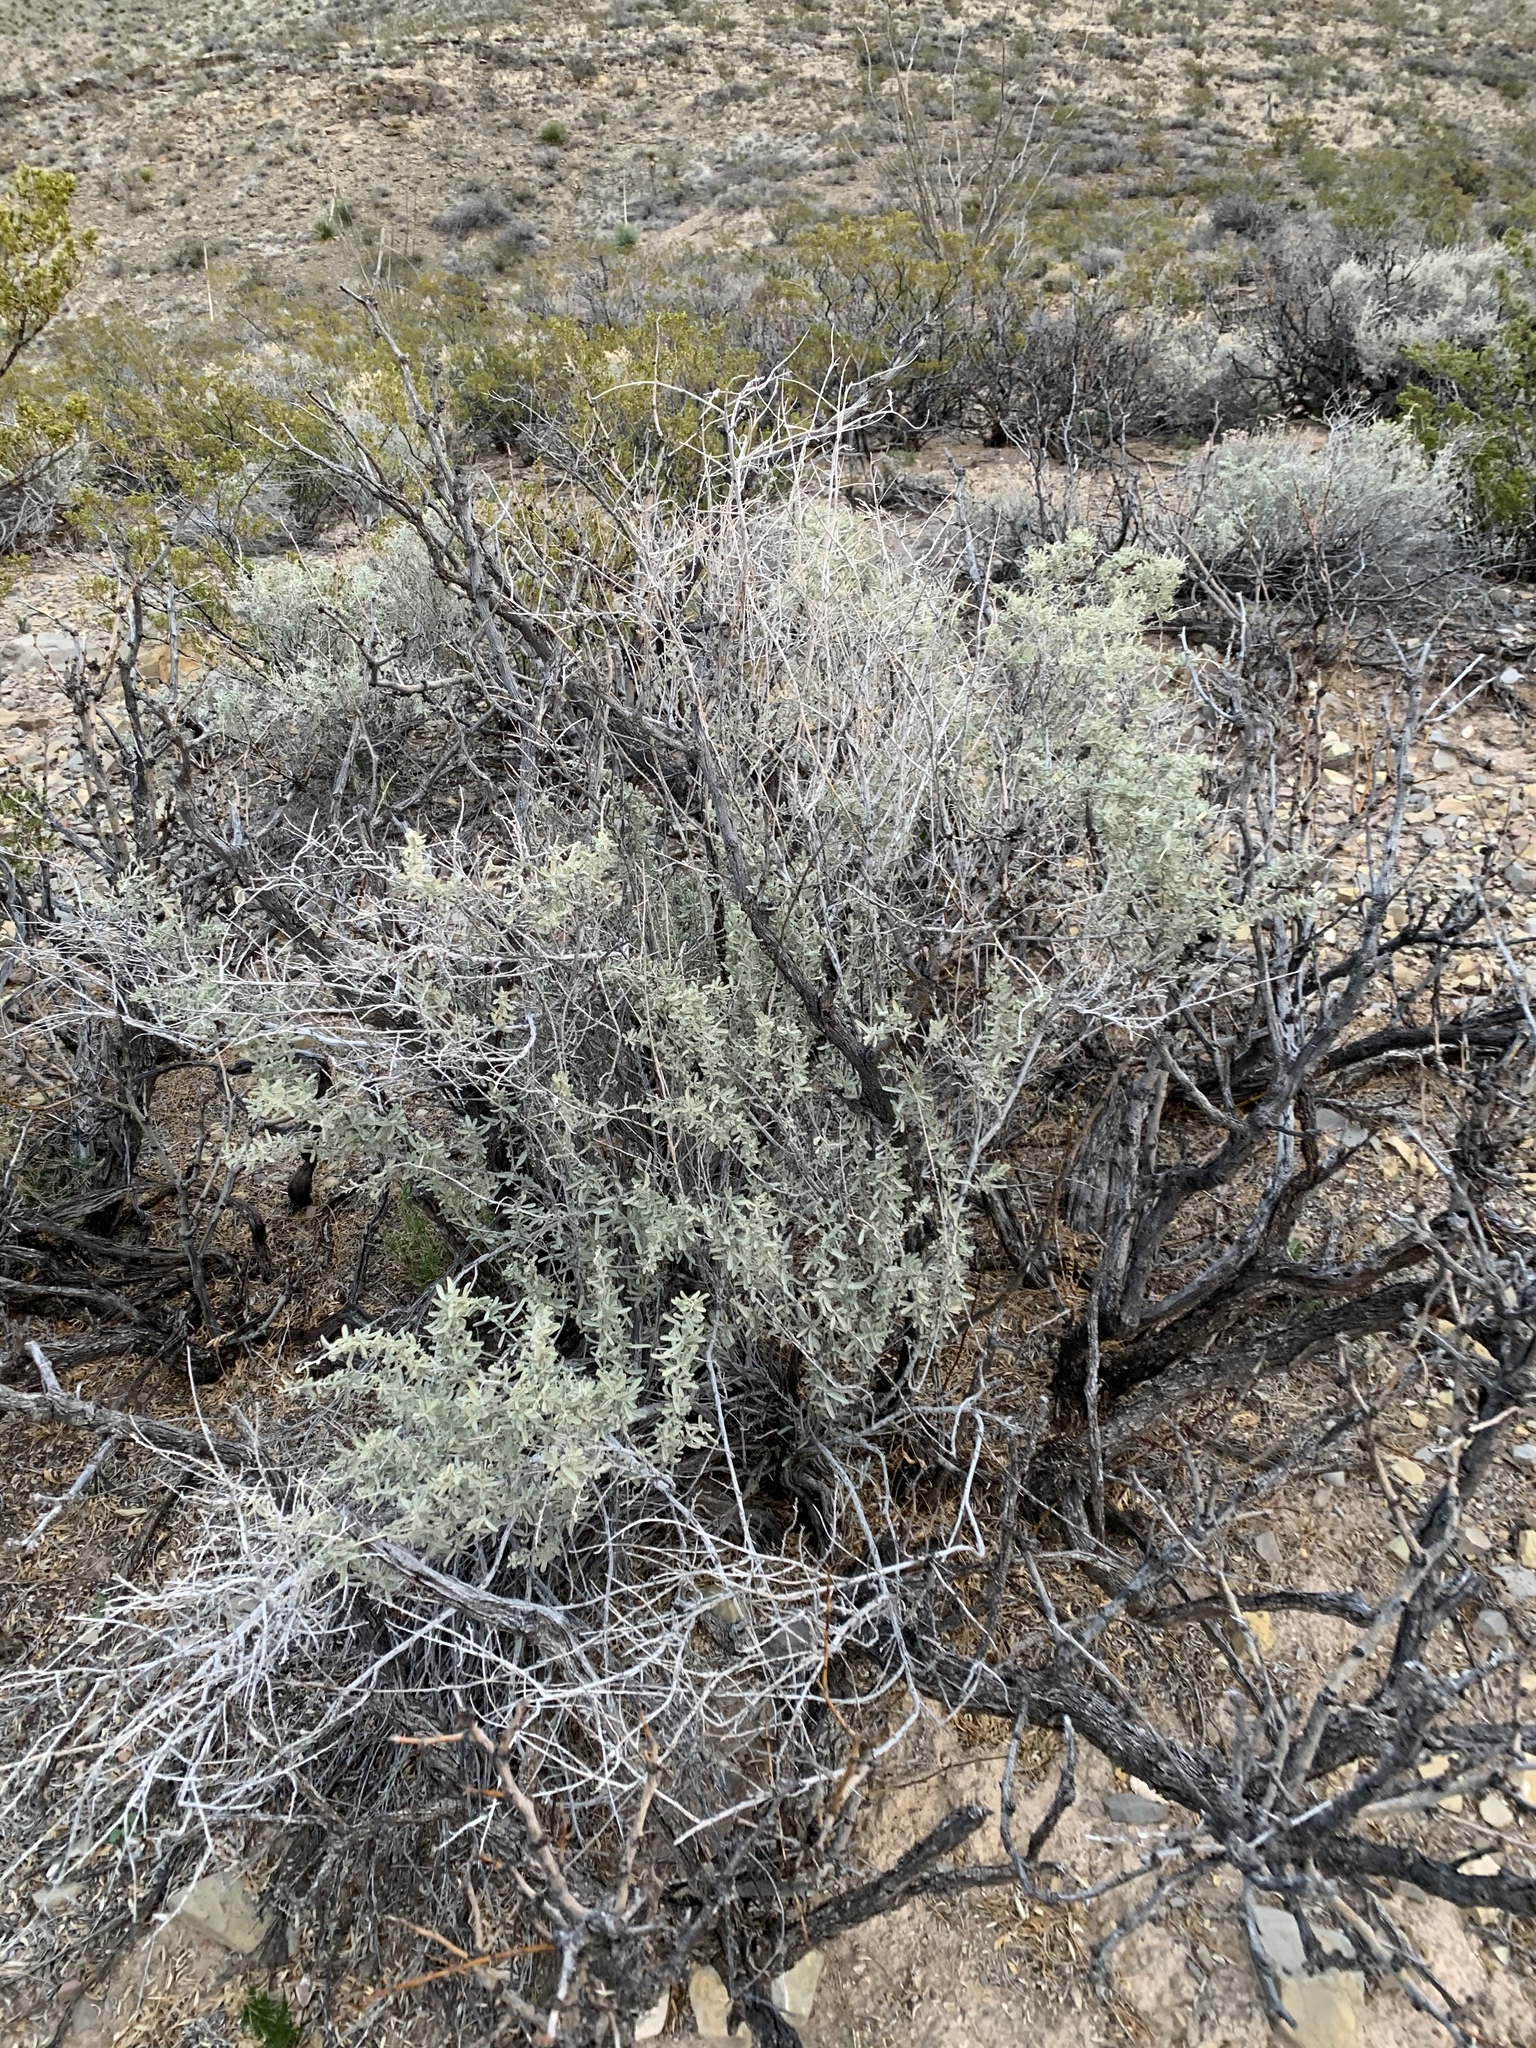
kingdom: Plantae
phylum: Tracheophyta
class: Magnoliopsida
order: Caryophyllales
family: Amaranthaceae
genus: Atriplex
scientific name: Atriplex canescens
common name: Four-wing saltbush
